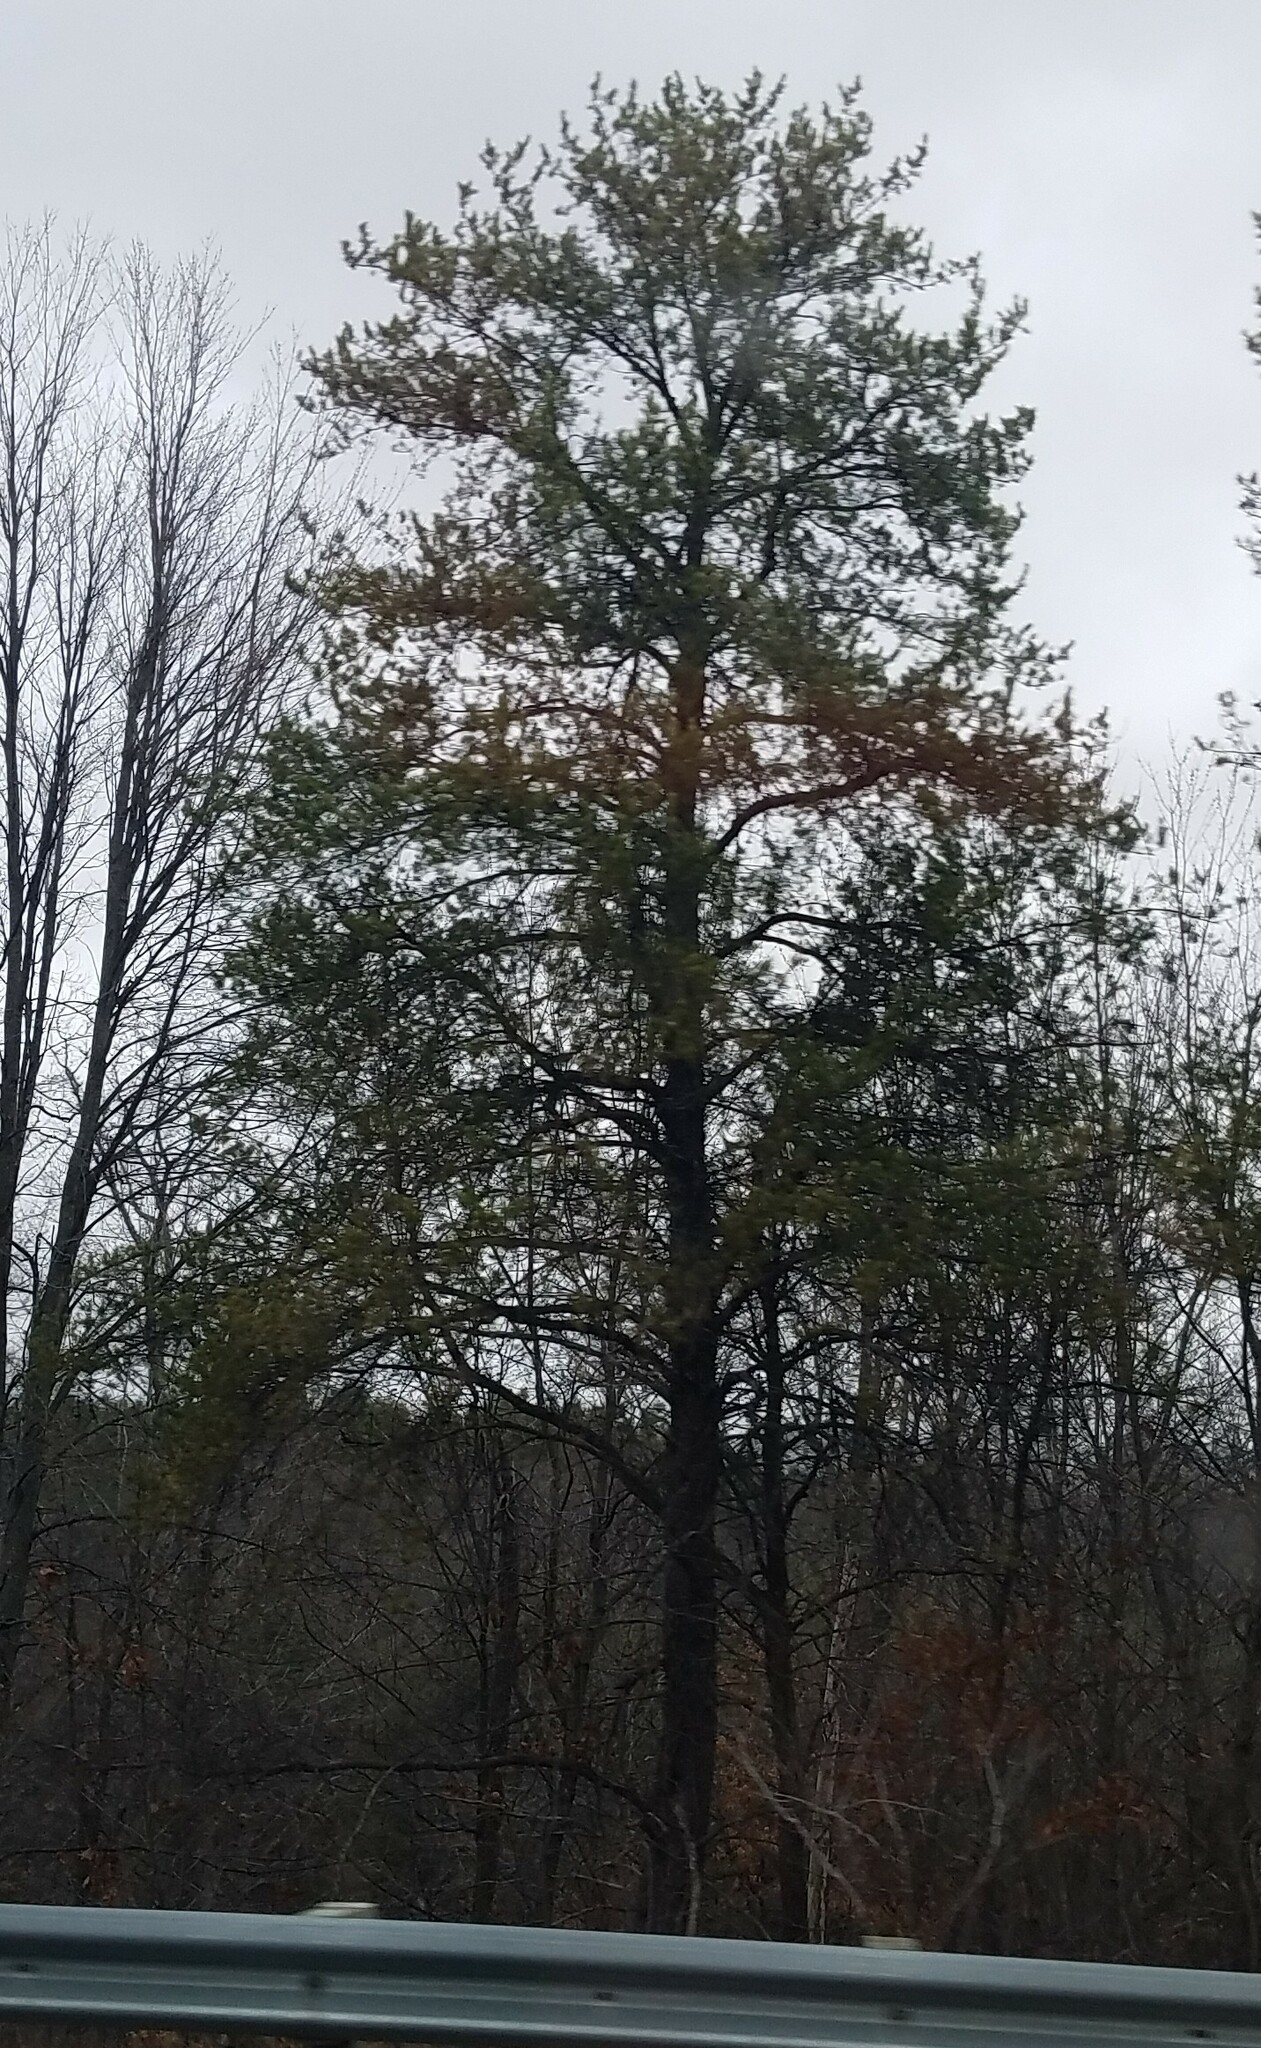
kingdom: Plantae
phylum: Tracheophyta
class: Pinopsida
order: Pinales
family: Pinaceae
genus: Pinus
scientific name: Pinus strobus
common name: Weymouth pine
